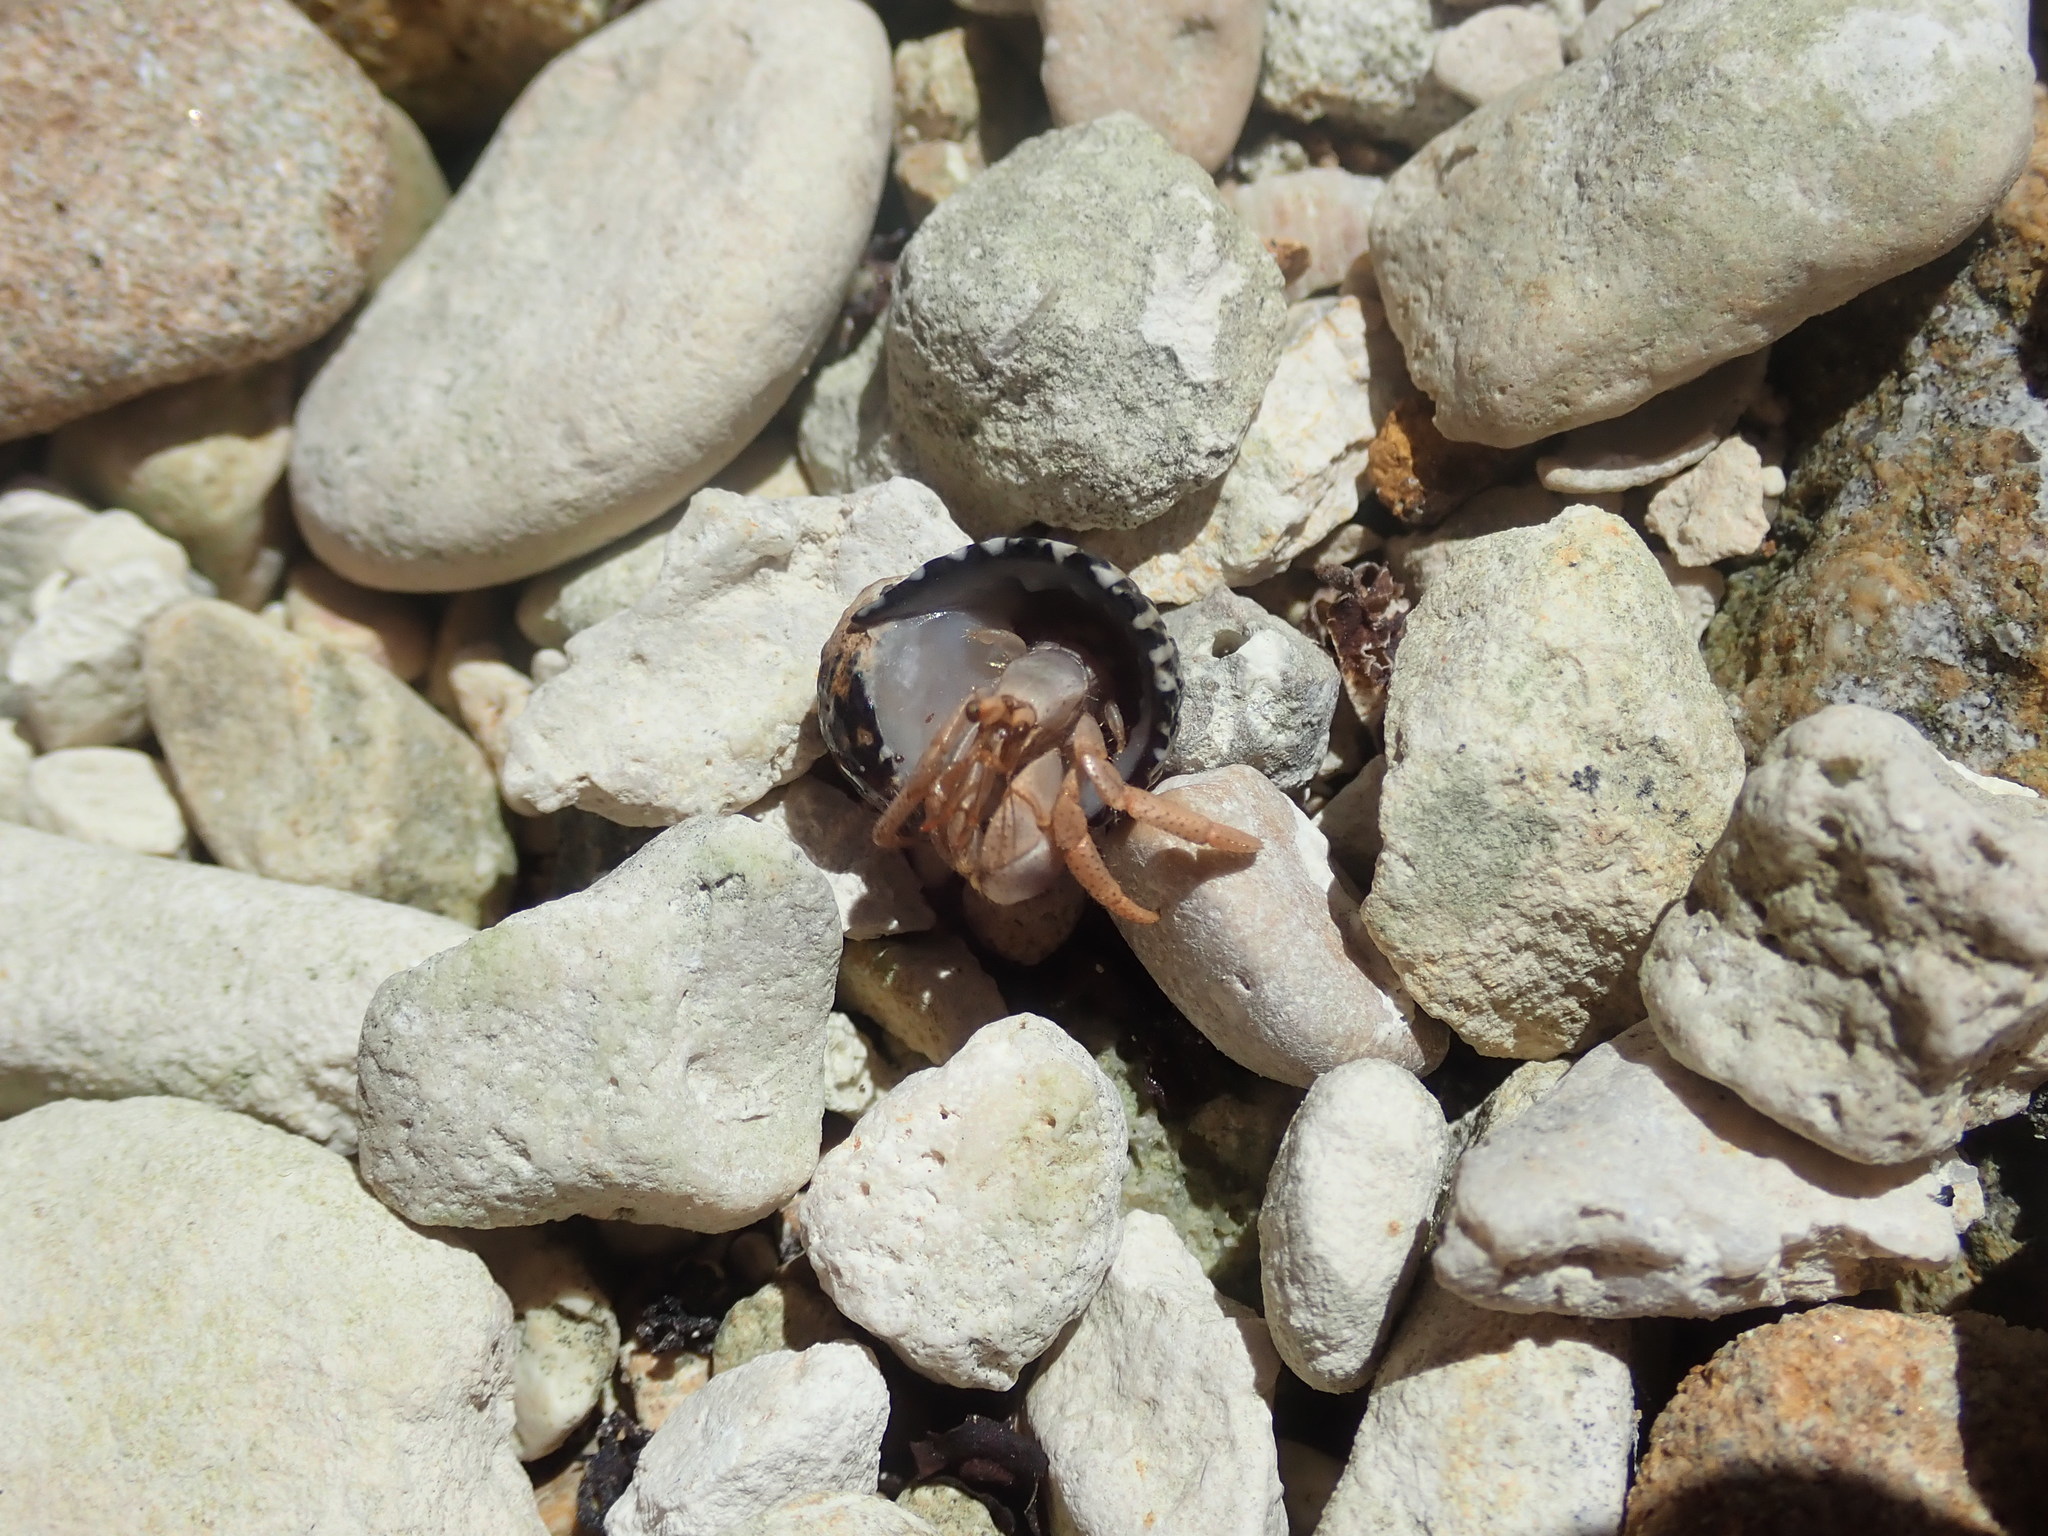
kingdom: Animalia
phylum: Arthropoda
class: Malacostraca
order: Decapoda
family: Coenobitidae
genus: Coenobita
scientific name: Coenobita clypeatus
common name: Caribbean hermit crab
